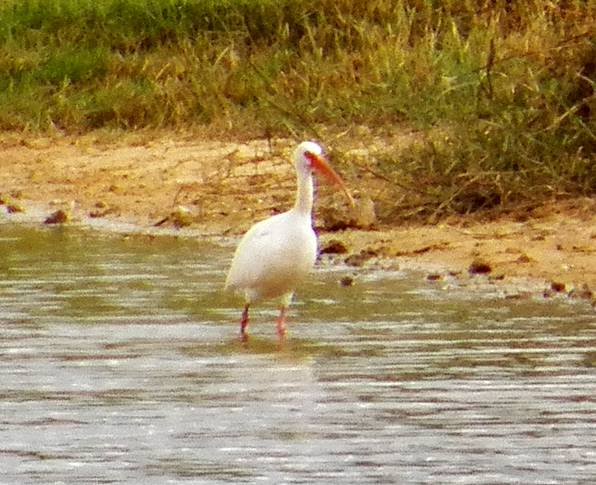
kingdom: Animalia
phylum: Chordata
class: Aves
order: Pelecaniformes
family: Threskiornithidae
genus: Eudocimus
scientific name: Eudocimus albus
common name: White ibis
